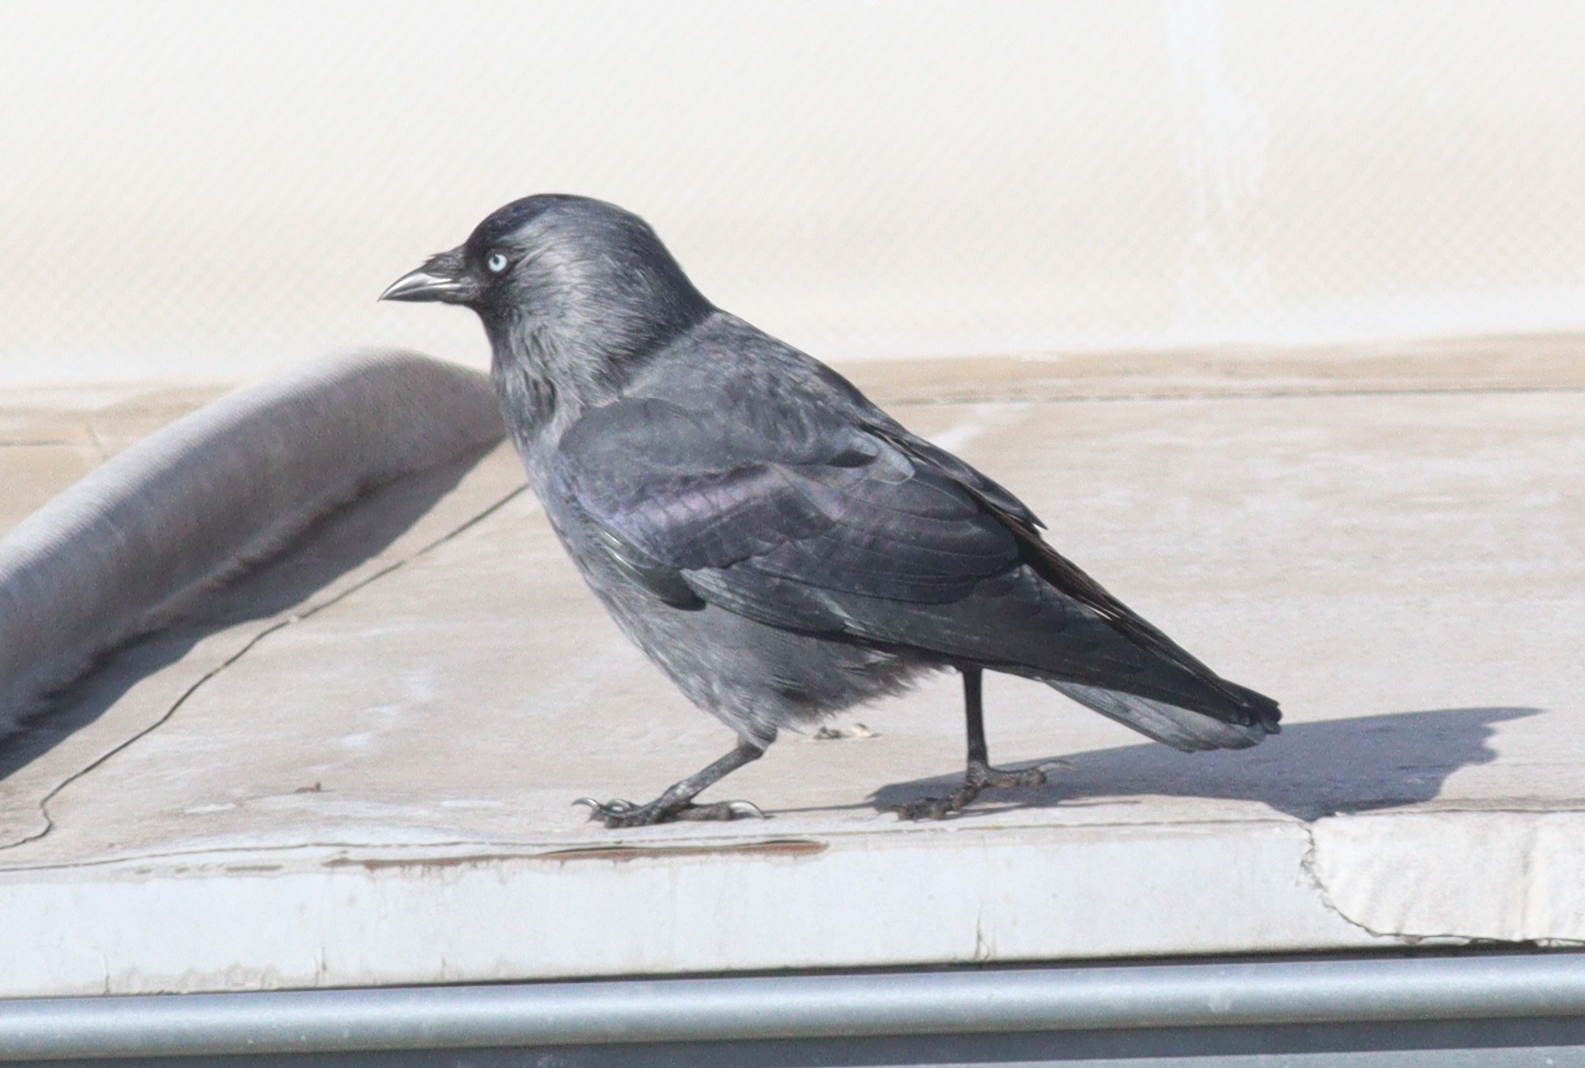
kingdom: Animalia
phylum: Chordata
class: Aves
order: Passeriformes
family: Corvidae
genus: Coloeus
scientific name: Coloeus monedula
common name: Western jackdaw
